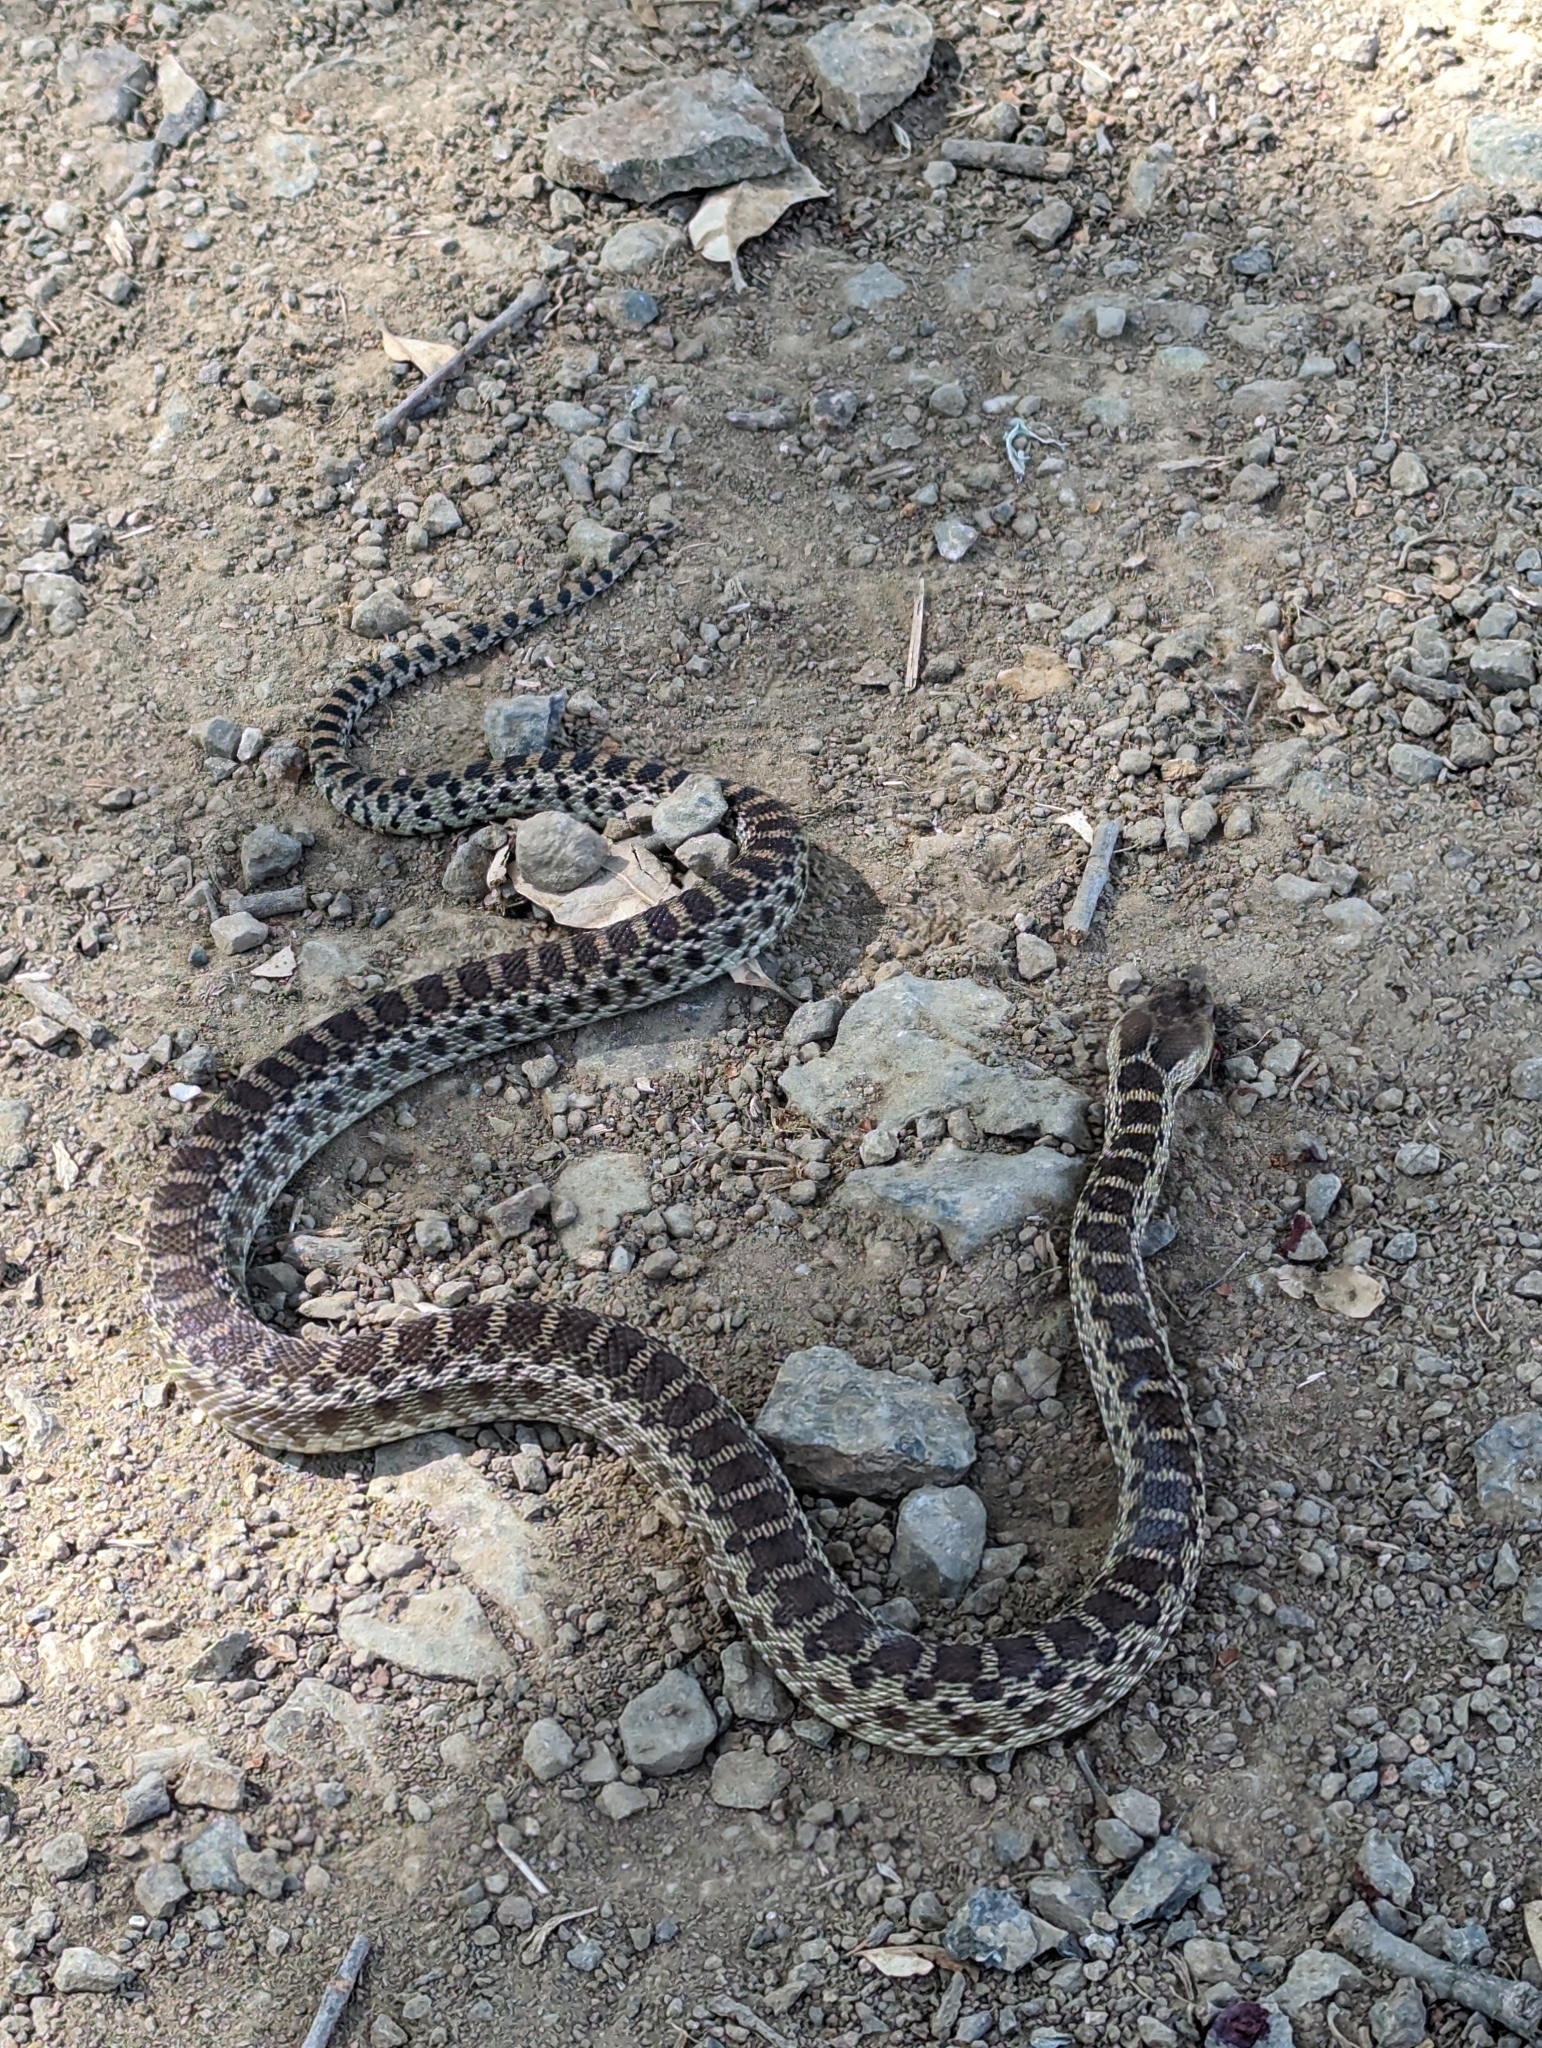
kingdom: Animalia
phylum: Chordata
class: Squamata
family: Colubridae
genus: Pituophis
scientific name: Pituophis catenifer
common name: Gopher snake
